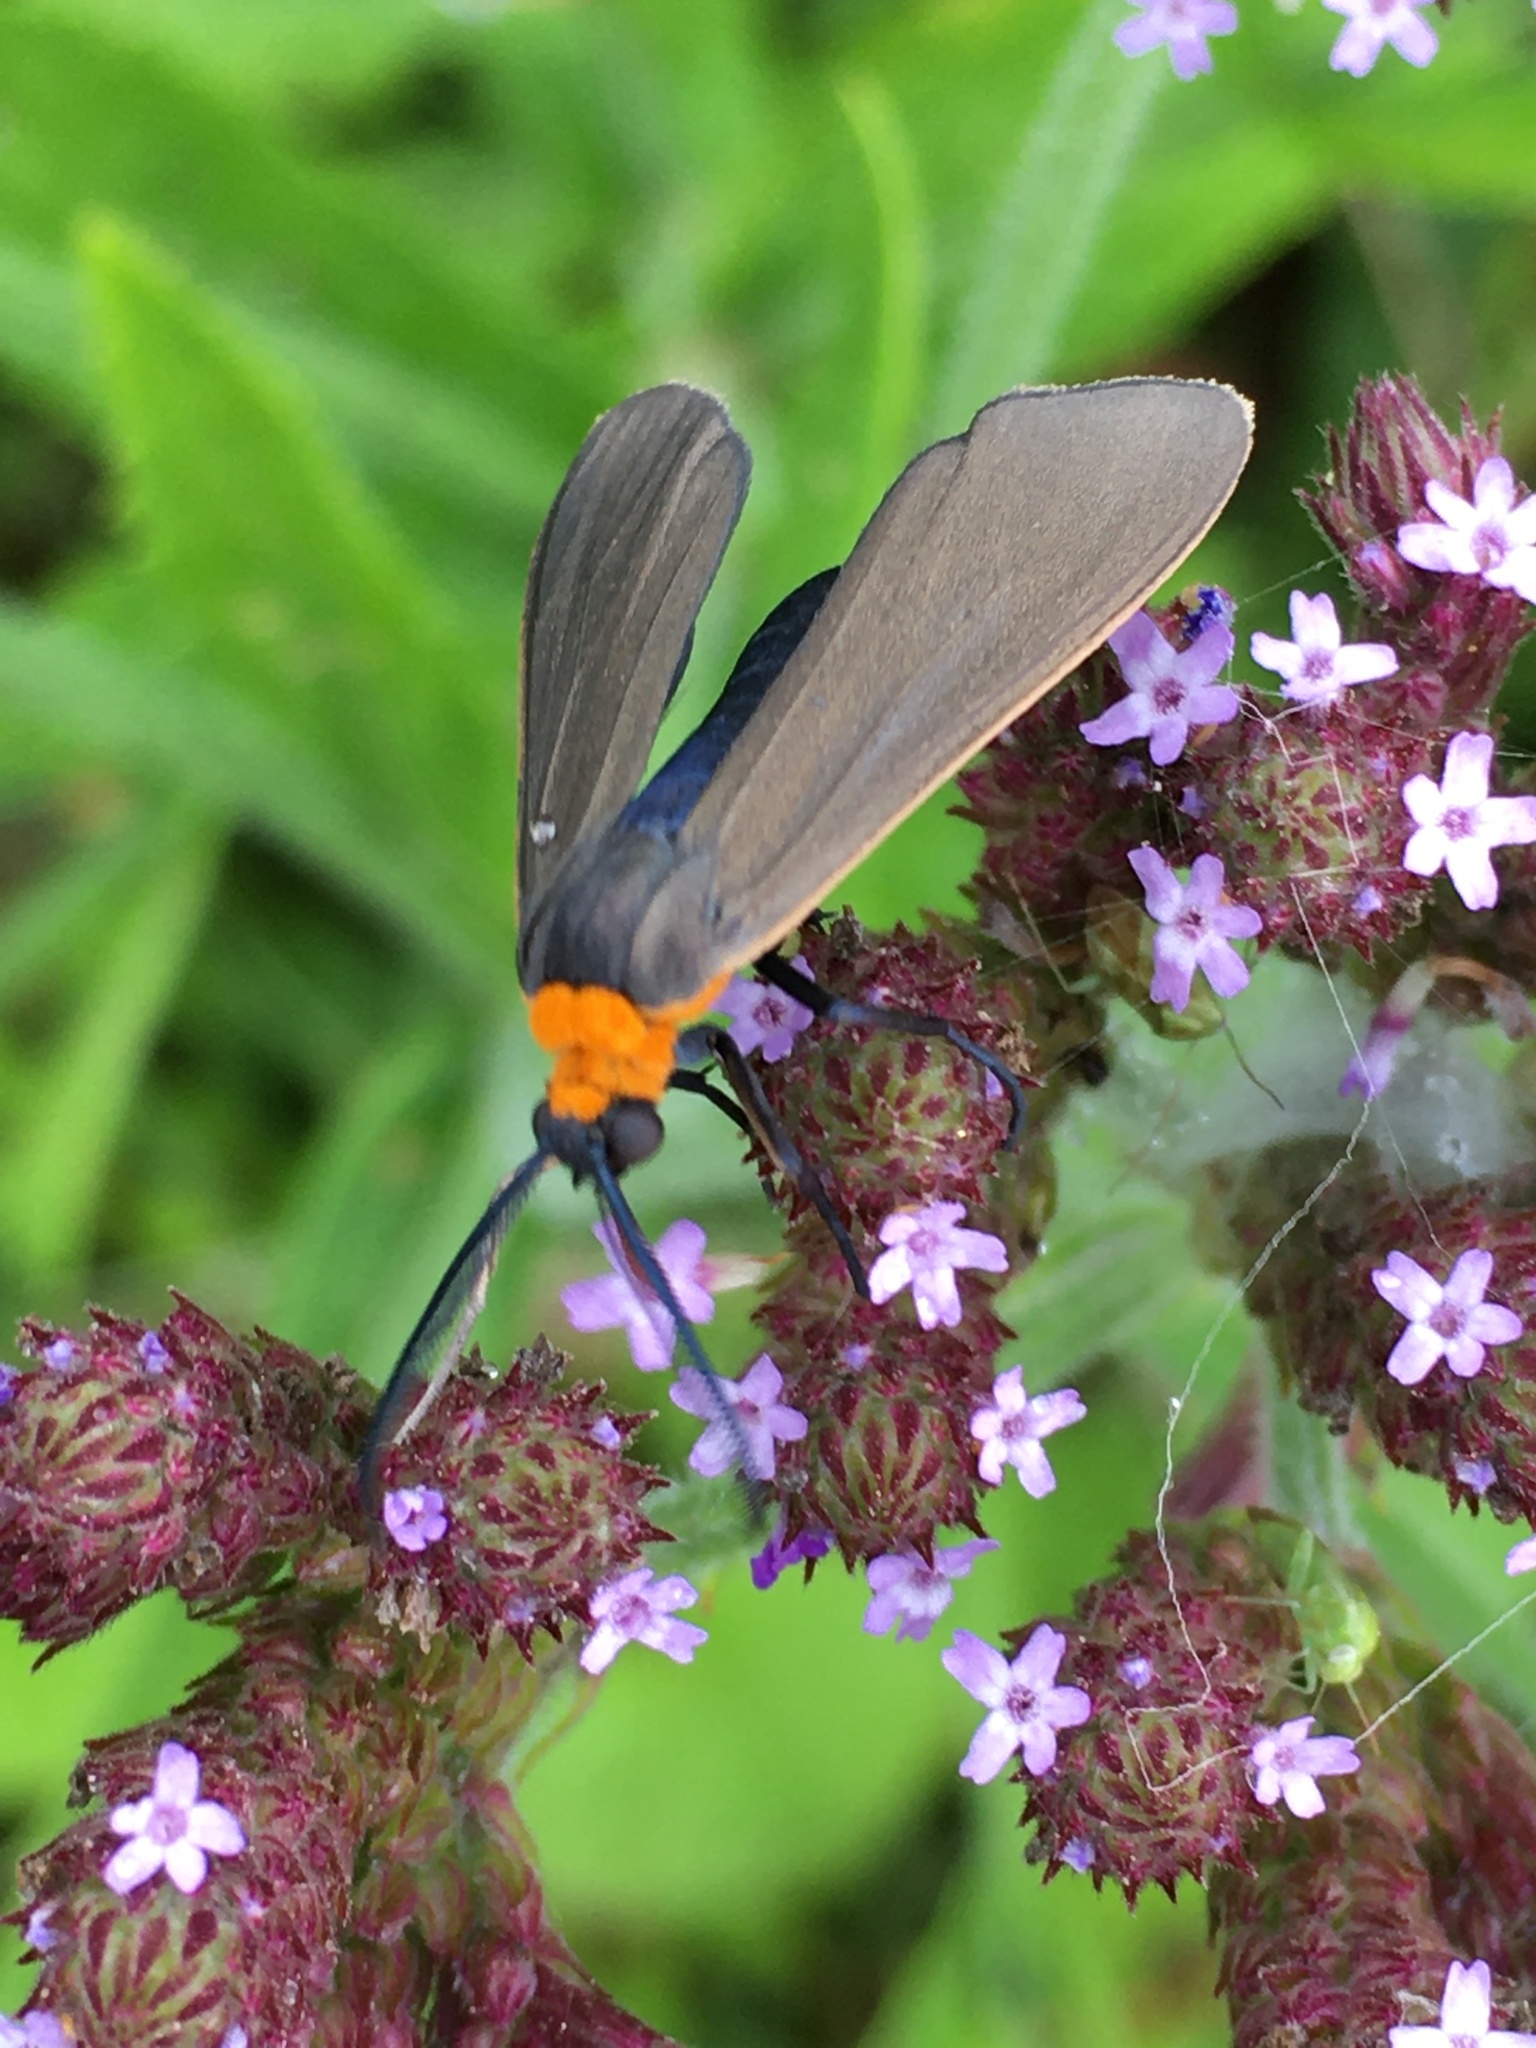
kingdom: Animalia
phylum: Arthropoda
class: Insecta
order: Lepidoptera
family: Erebidae
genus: Cisseps
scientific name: Cisseps fulvicollis
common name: Yellow-collared scape moth
